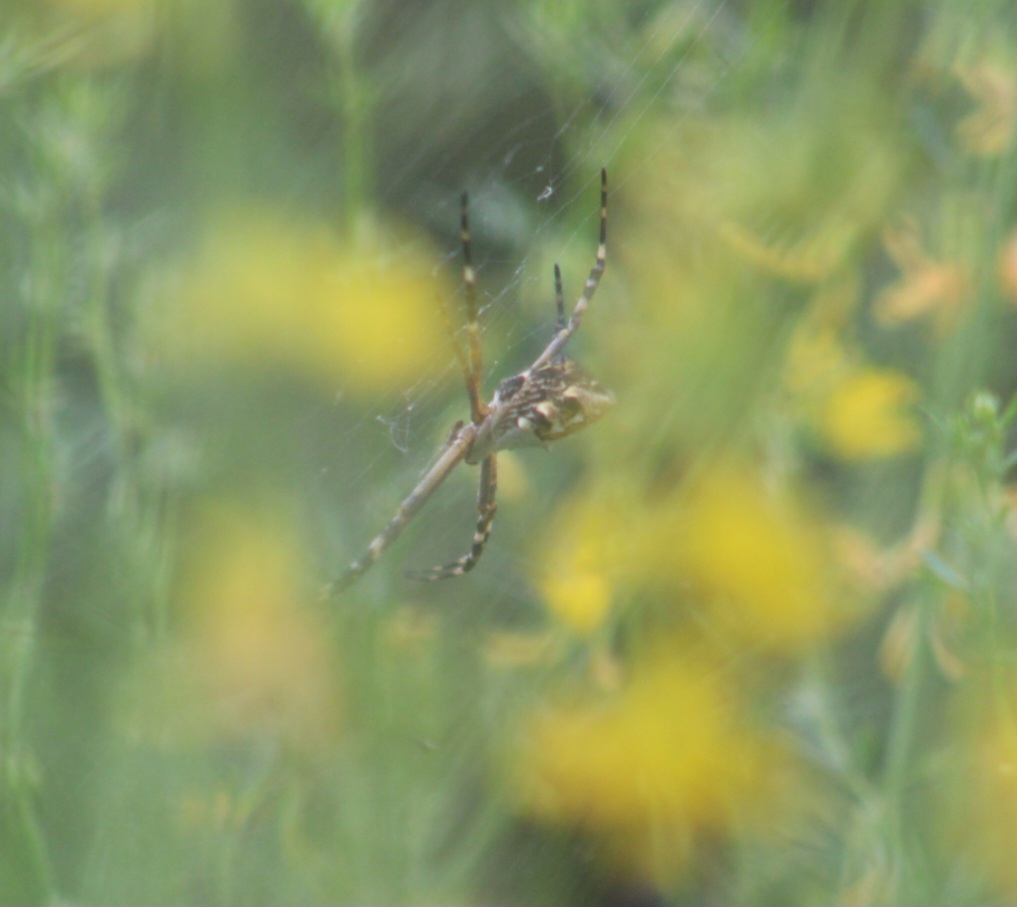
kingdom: Animalia
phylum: Arthropoda
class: Arachnida
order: Araneae
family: Araneidae
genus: Argiope
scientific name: Argiope argentata
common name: Orb weavers
